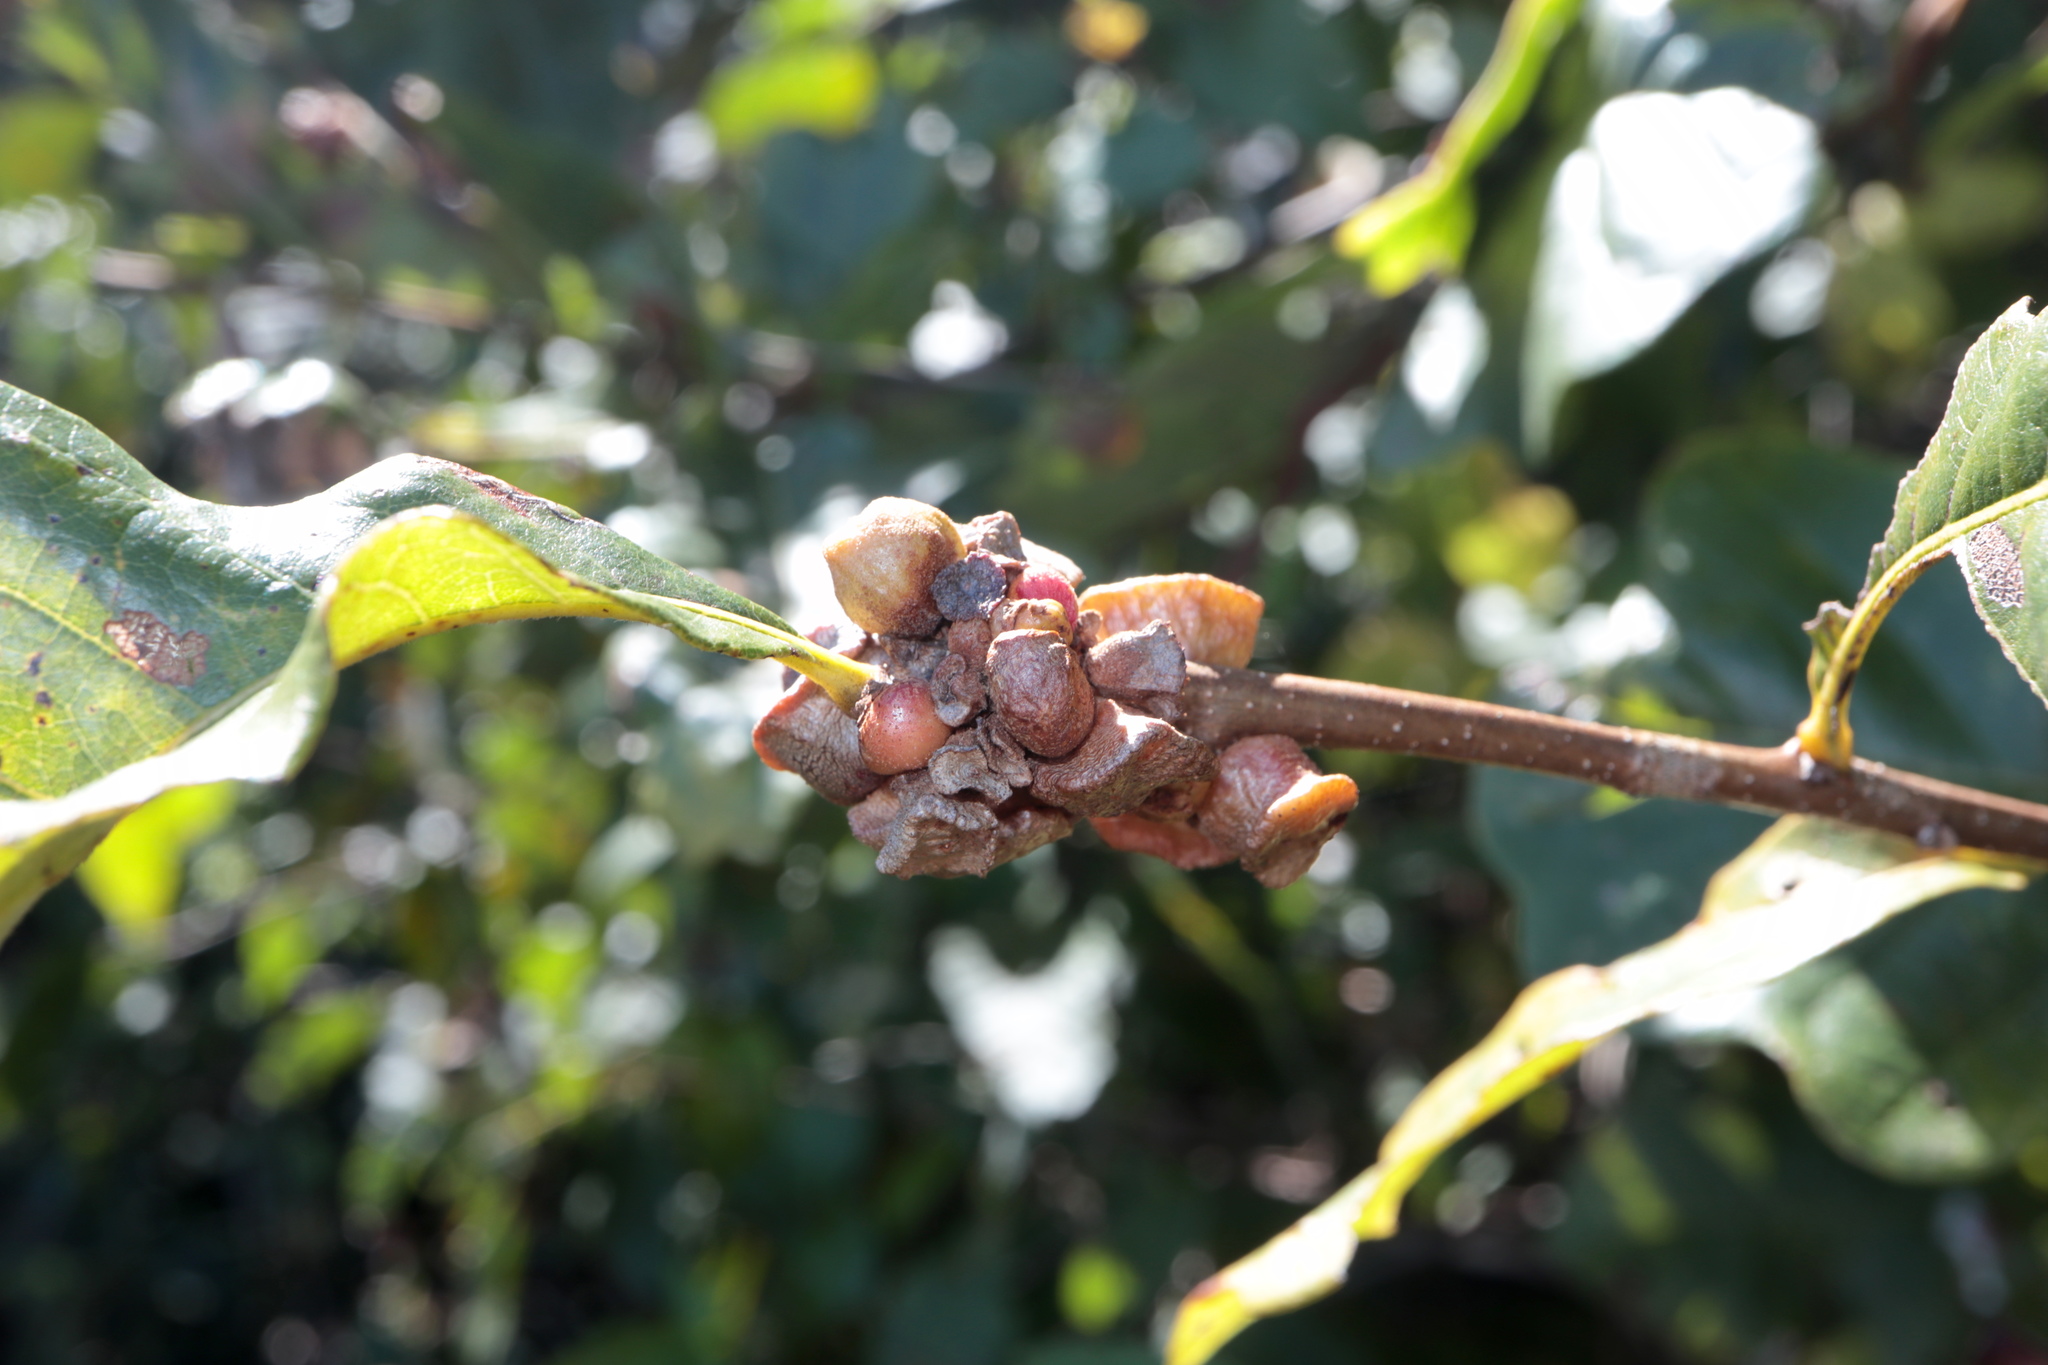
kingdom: Animalia
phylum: Arthropoda
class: Insecta
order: Hymenoptera
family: Cynipidae
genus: Andricus
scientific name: Andricus
